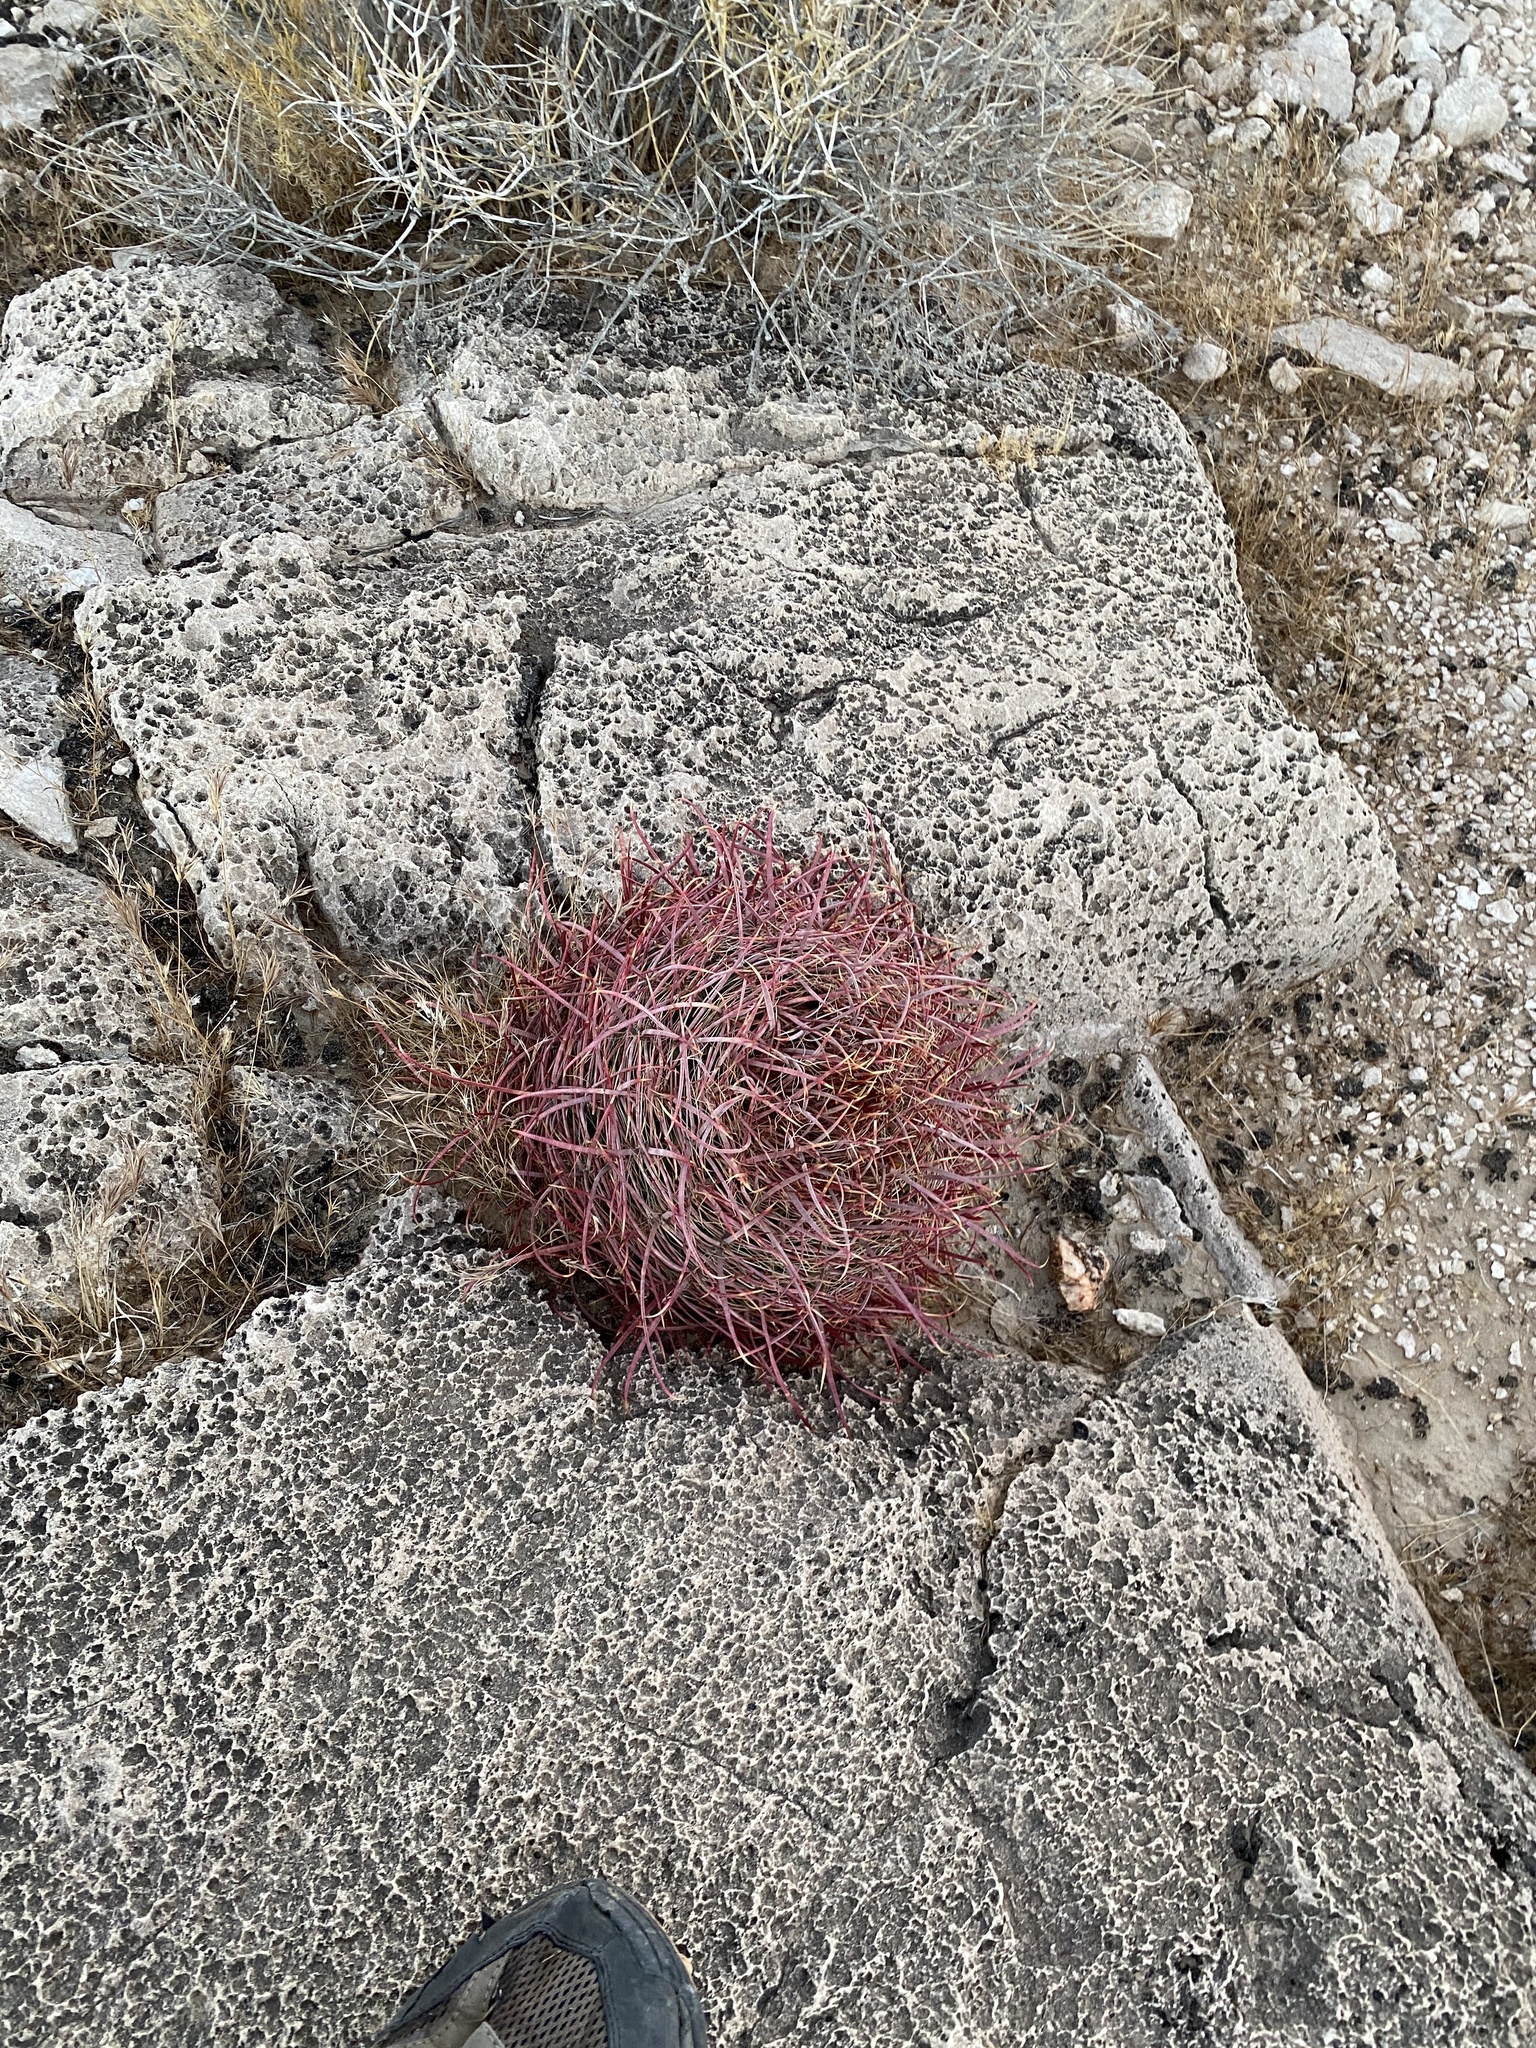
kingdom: Plantae
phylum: Tracheophyta
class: Magnoliopsida
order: Caryophyllales
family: Cactaceae
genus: Ferocactus
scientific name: Ferocactus cylindraceus
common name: California barrel cactus
